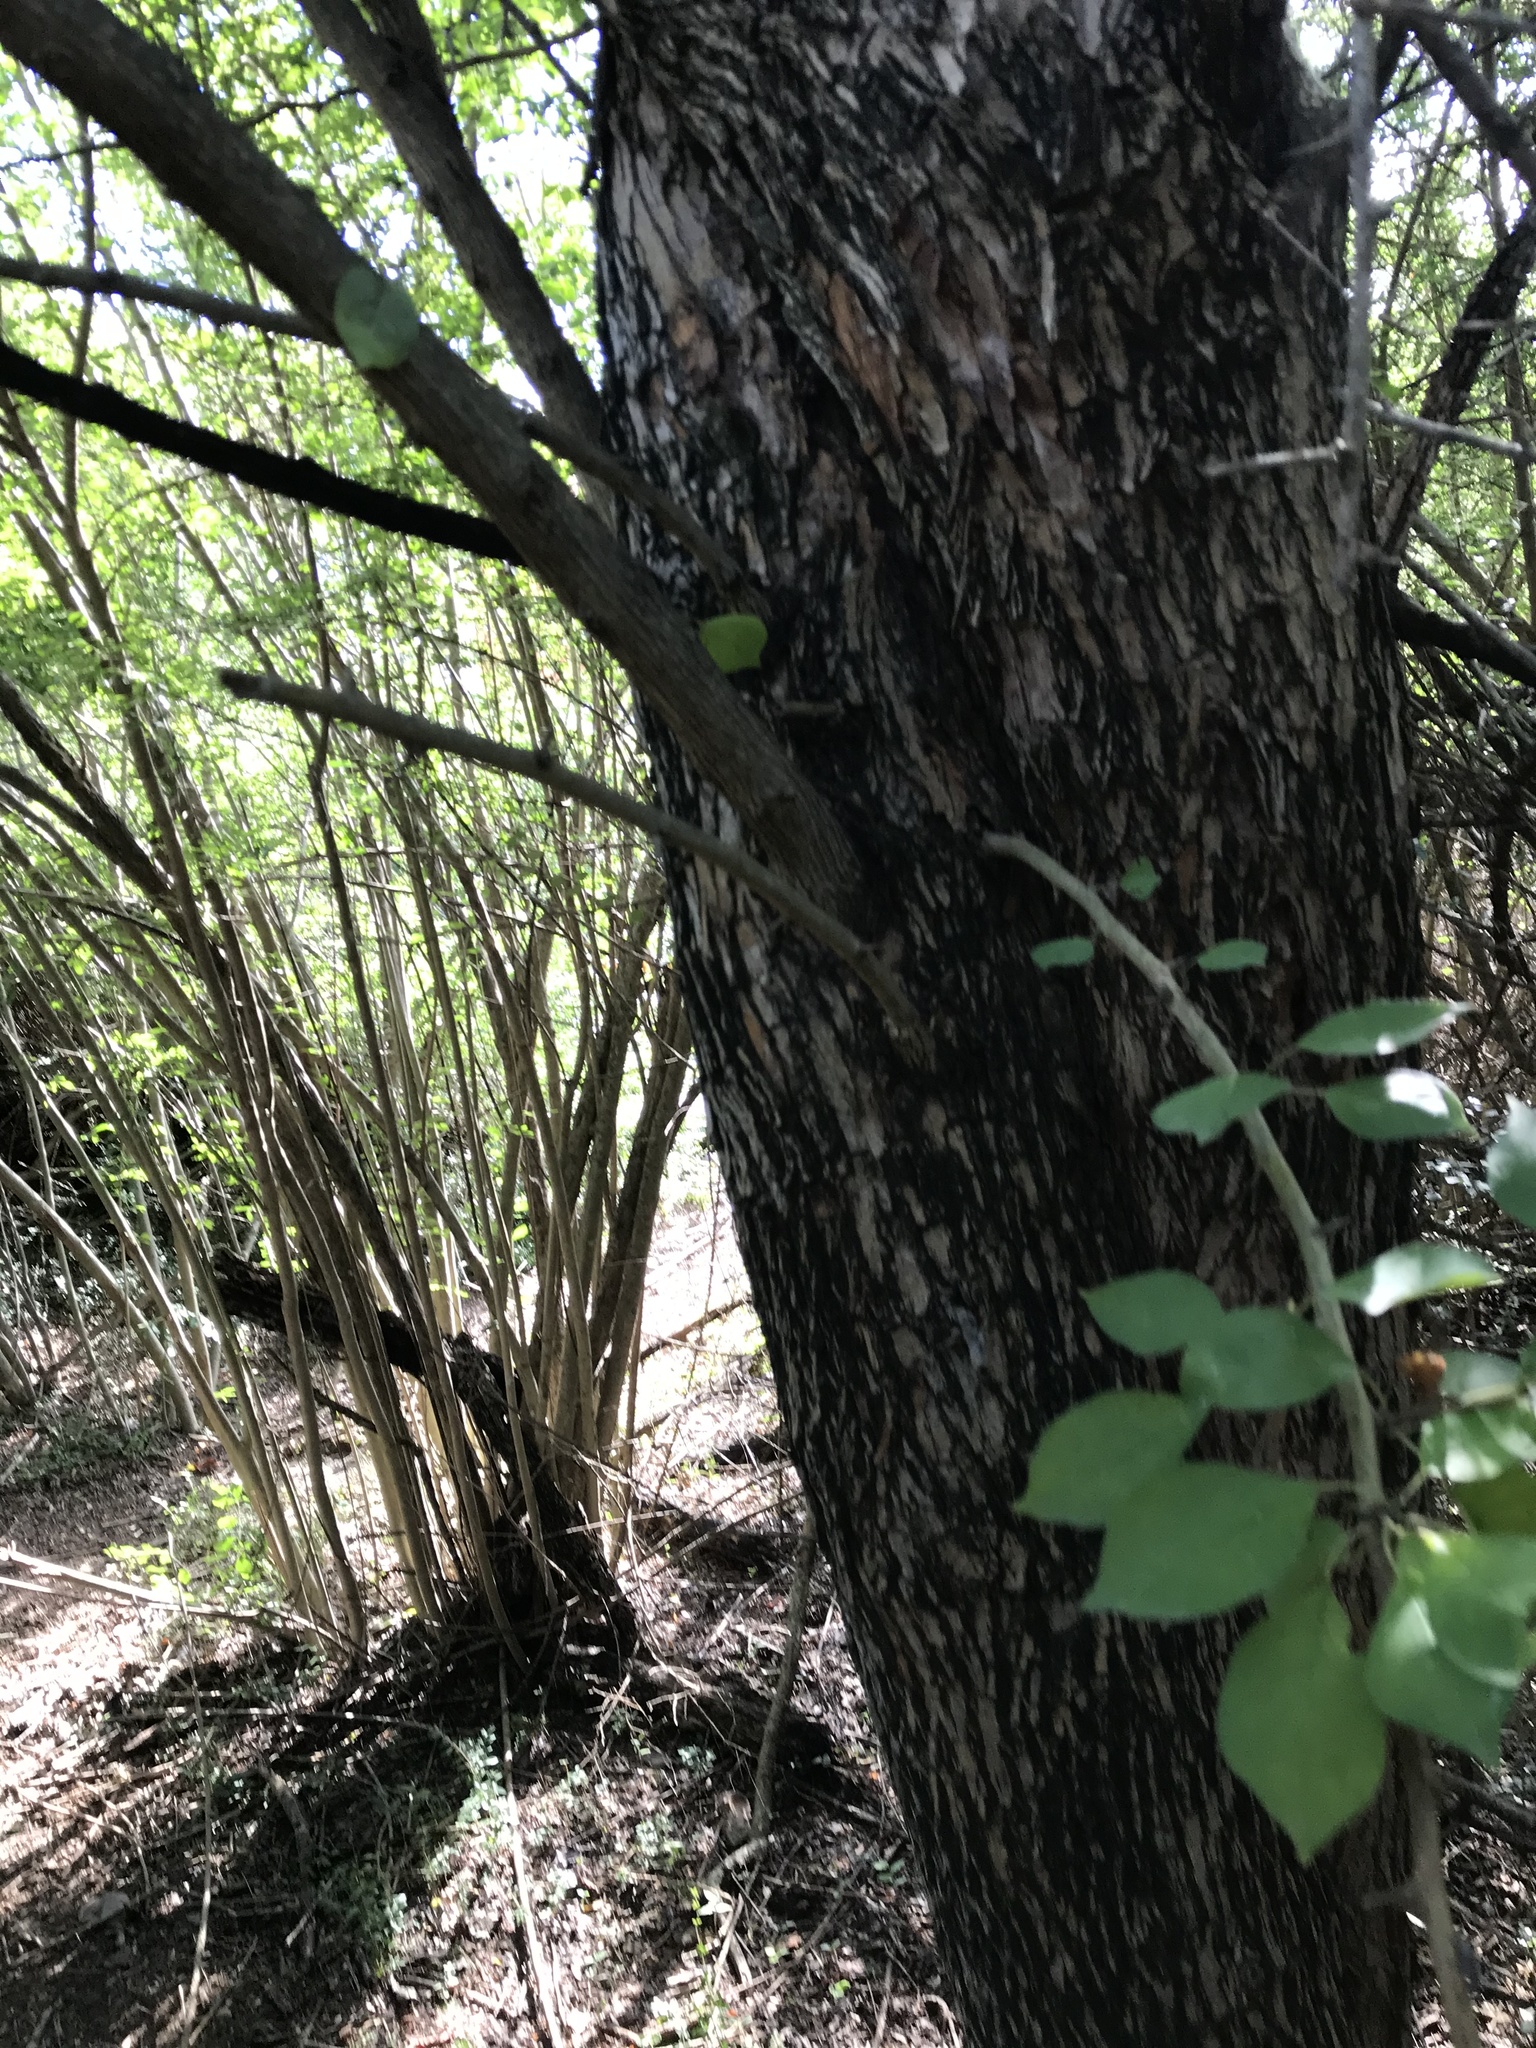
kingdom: Plantae
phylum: Tracheophyta
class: Magnoliopsida
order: Rosales
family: Moraceae
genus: Maclura
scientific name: Maclura pomifera
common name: Osage-orange
